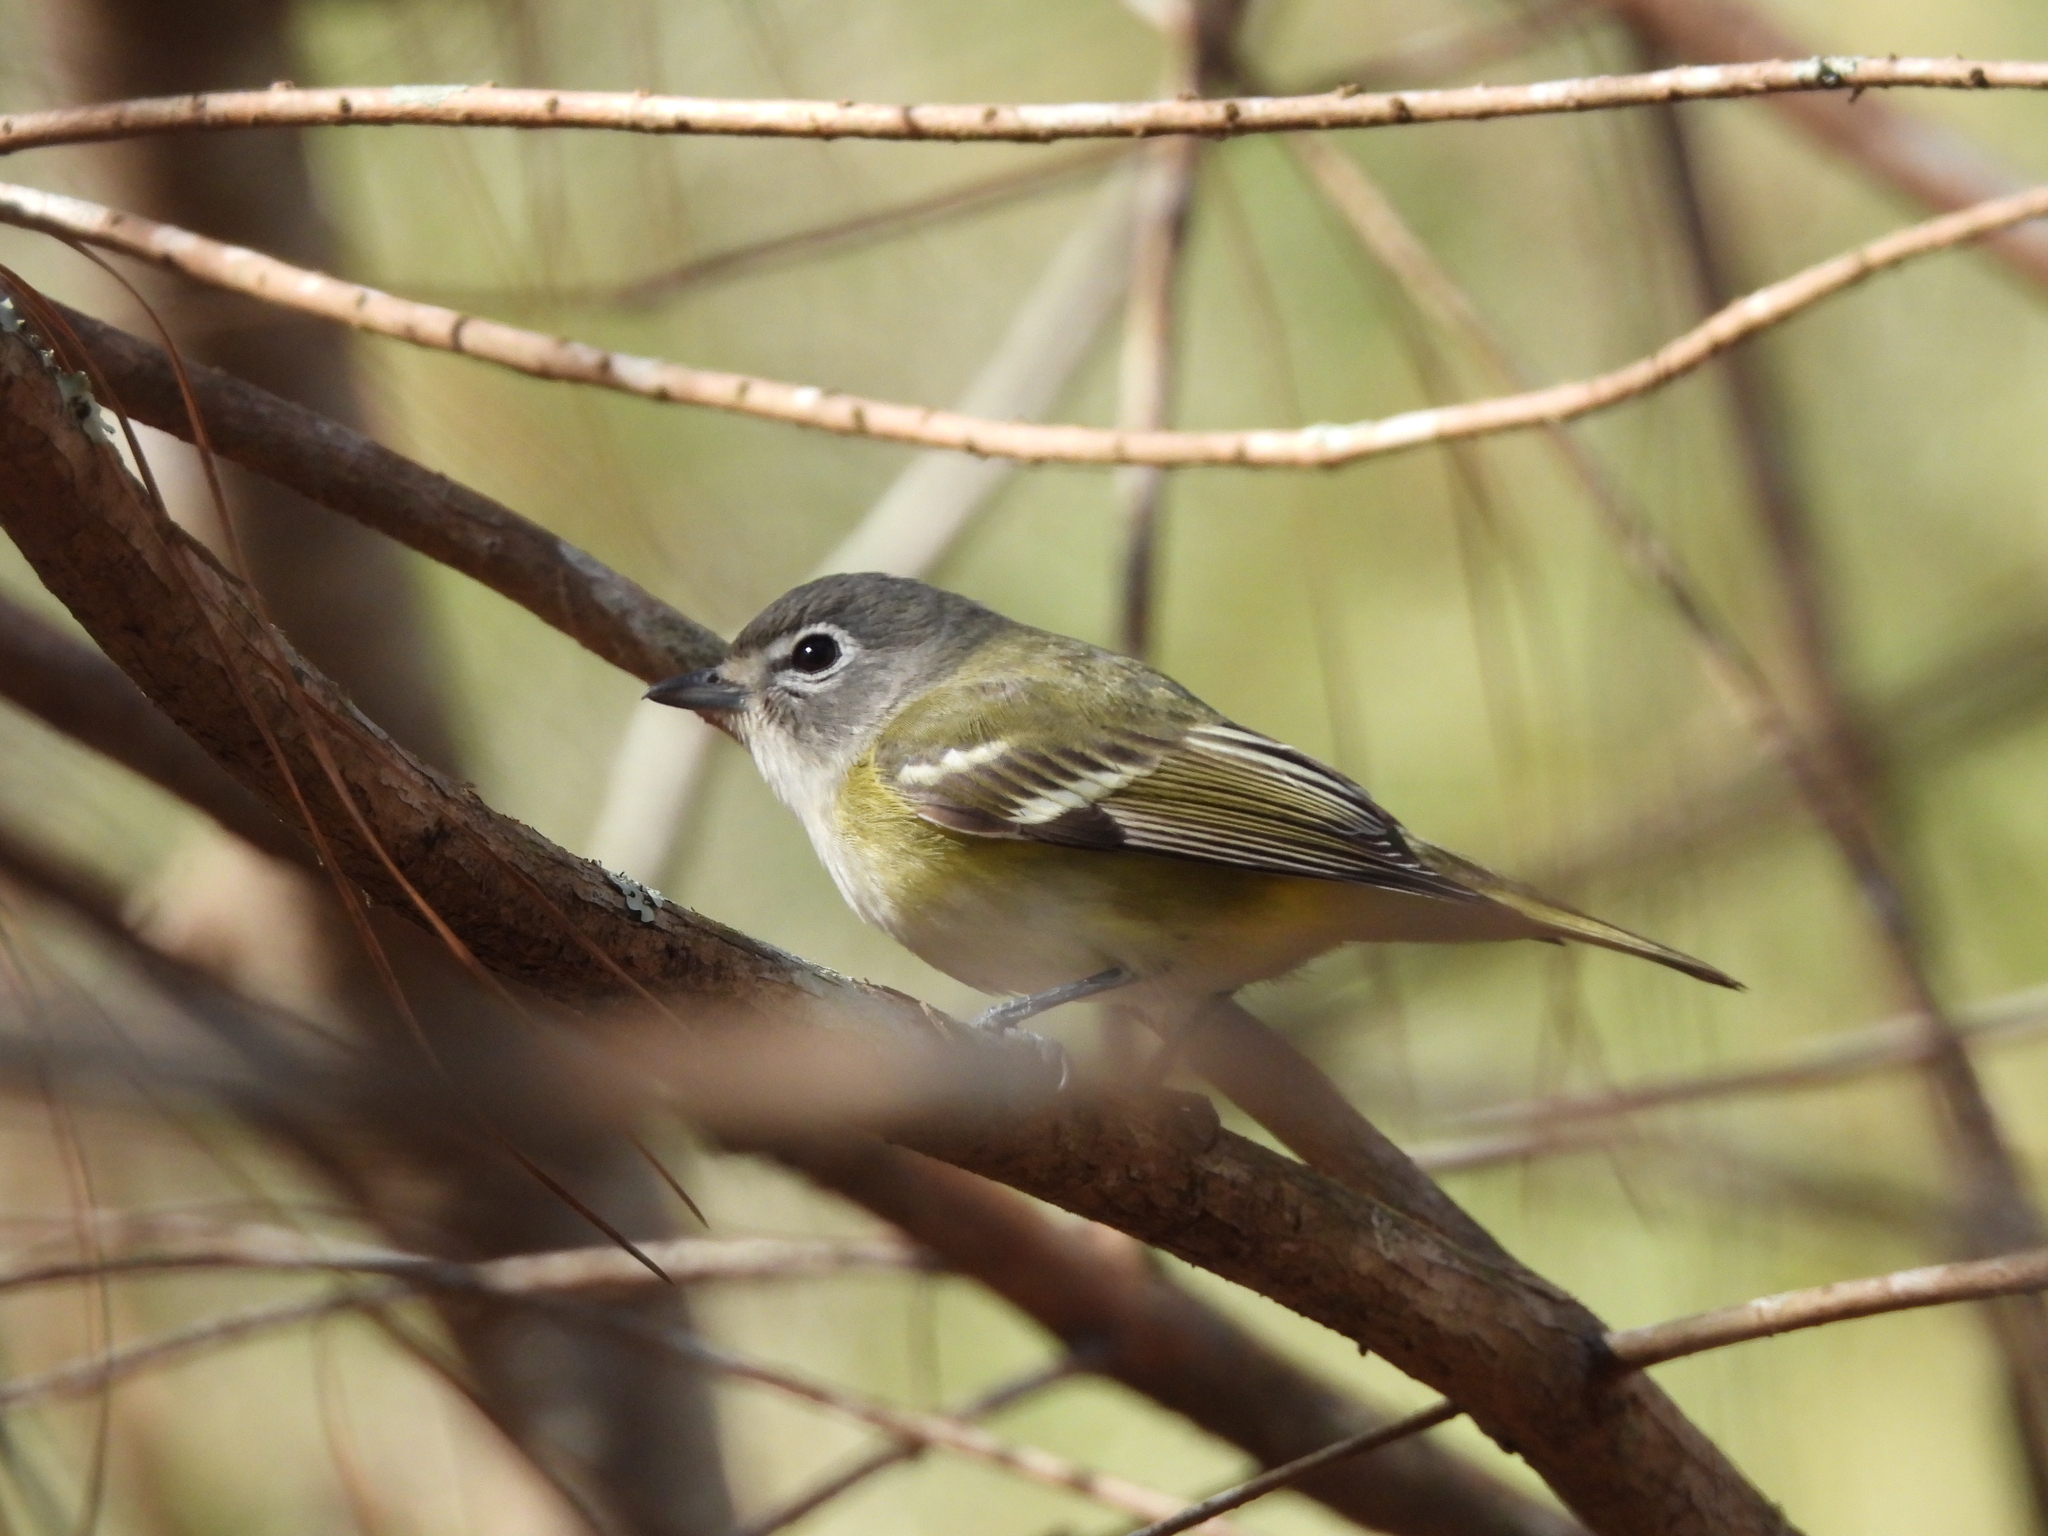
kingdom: Animalia
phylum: Chordata
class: Aves
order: Passeriformes
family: Vireonidae
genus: Vireo
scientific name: Vireo solitarius
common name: Blue-headed vireo
